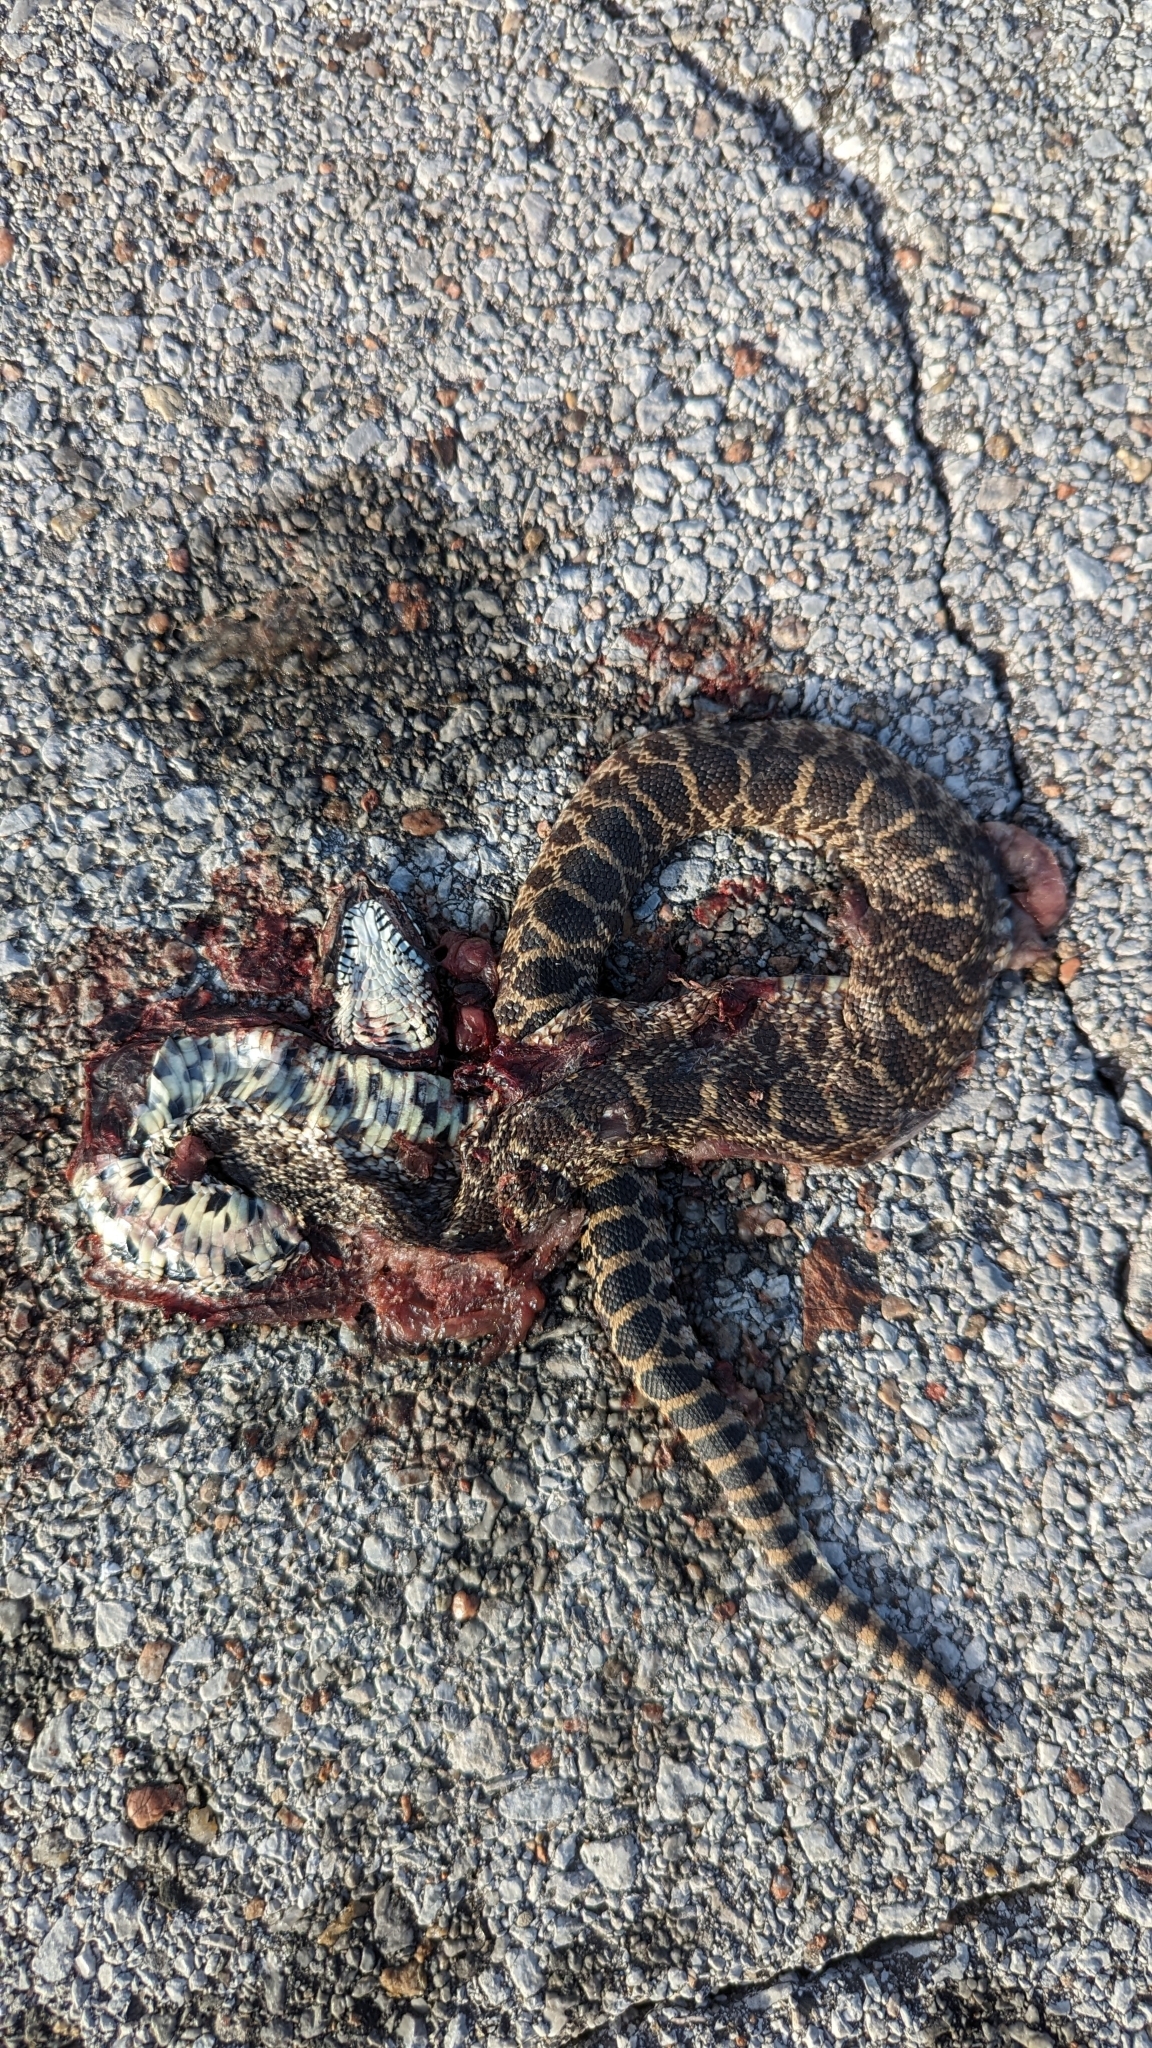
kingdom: Animalia
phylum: Chordata
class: Squamata
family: Colubridae
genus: Pituophis
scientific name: Pituophis catenifer
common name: Gopher snake
